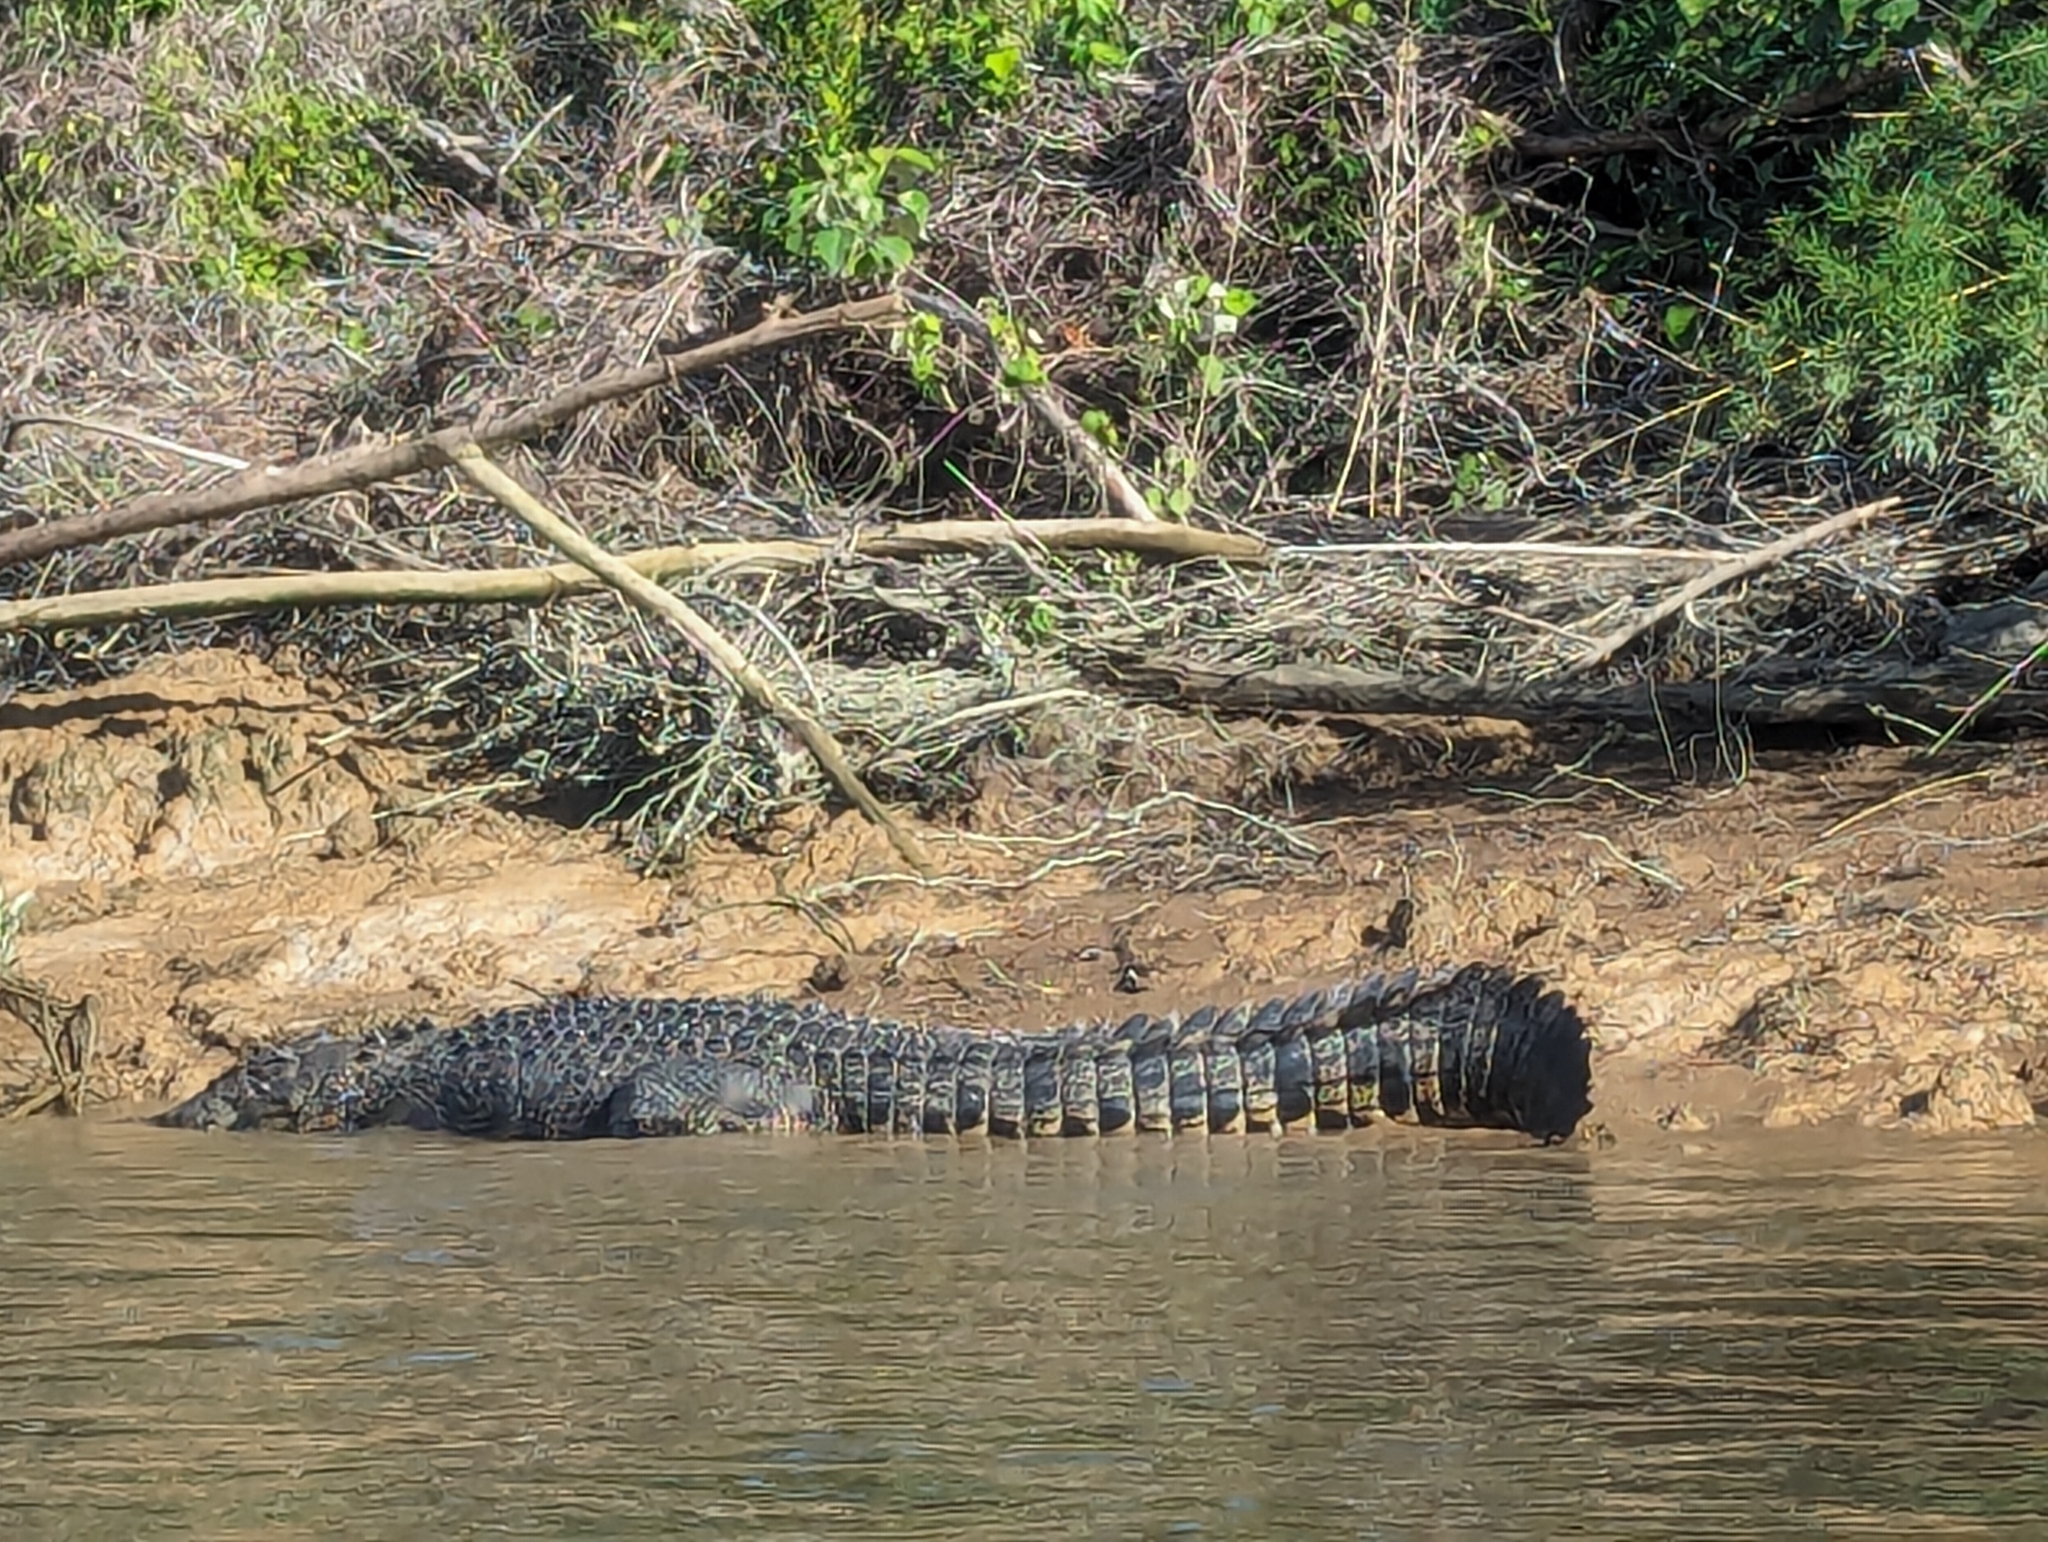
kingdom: Animalia
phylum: Chordata
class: Crocodylia
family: Crocodylidae
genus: Crocodylus
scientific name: Crocodylus porosus
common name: Saltwater crocodile
